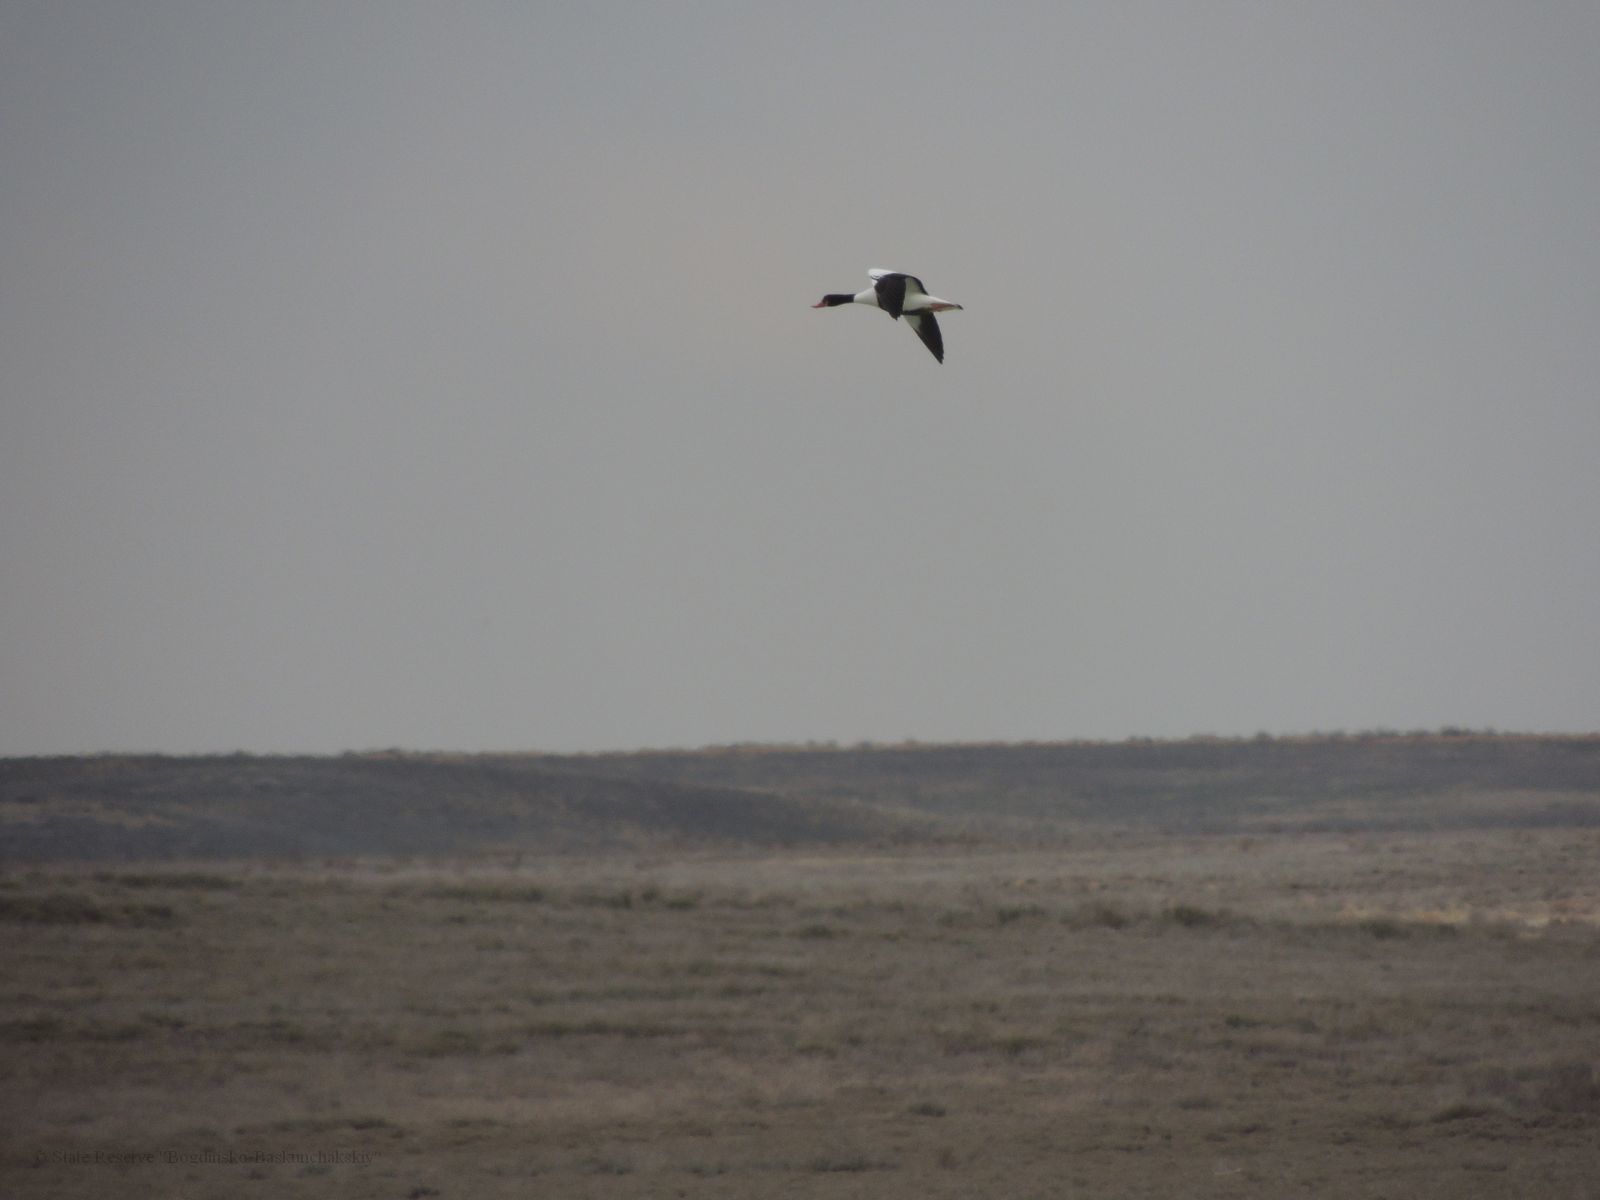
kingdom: Animalia
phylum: Chordata
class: Aves
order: Anseriformes
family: Anatidae
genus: Tadorna
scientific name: Tadorna tadorna
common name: Common shelduck
